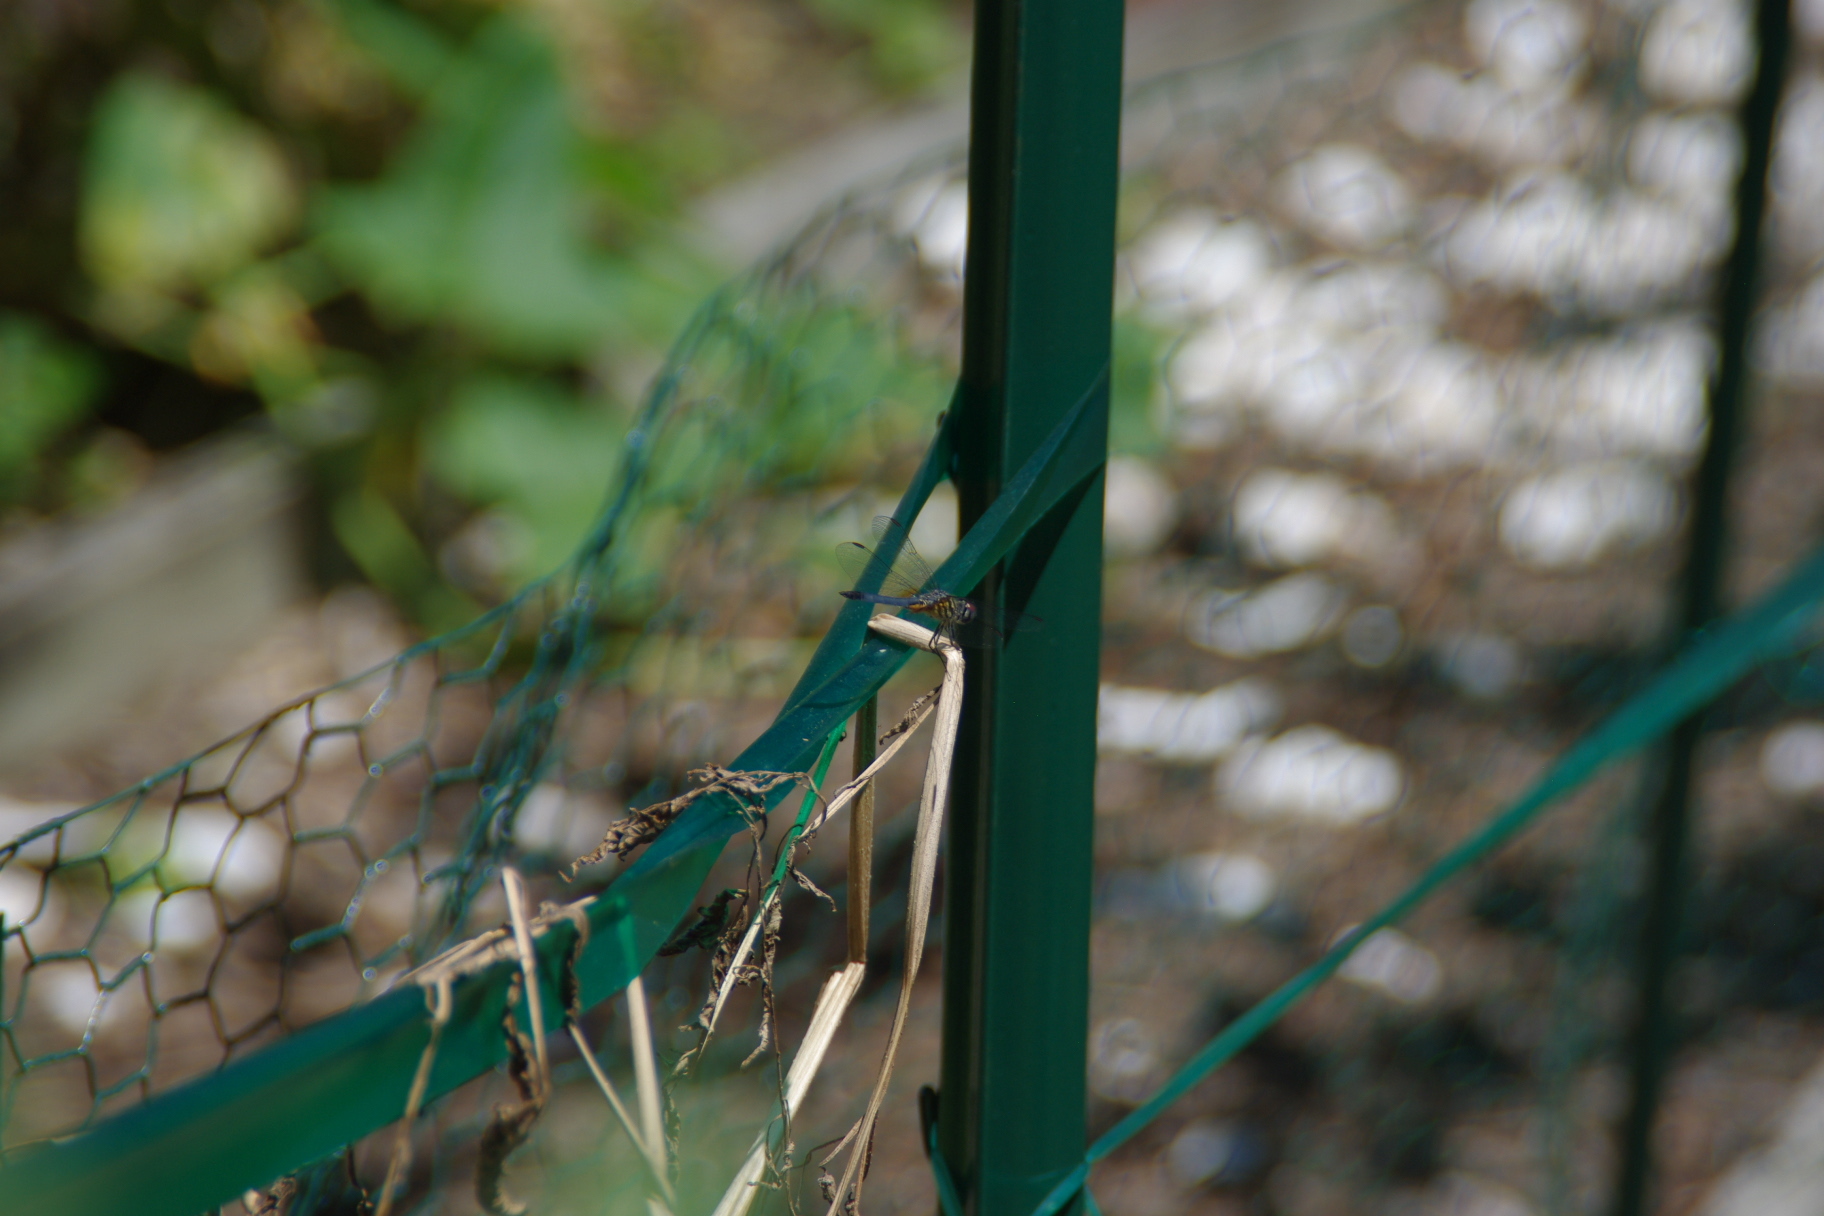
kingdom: Animalia
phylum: Arthropoda
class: Insecta
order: Odonata
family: Libellulidae
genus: Pachydiplax
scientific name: Pachydiplax longipennis
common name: Blue dasher
